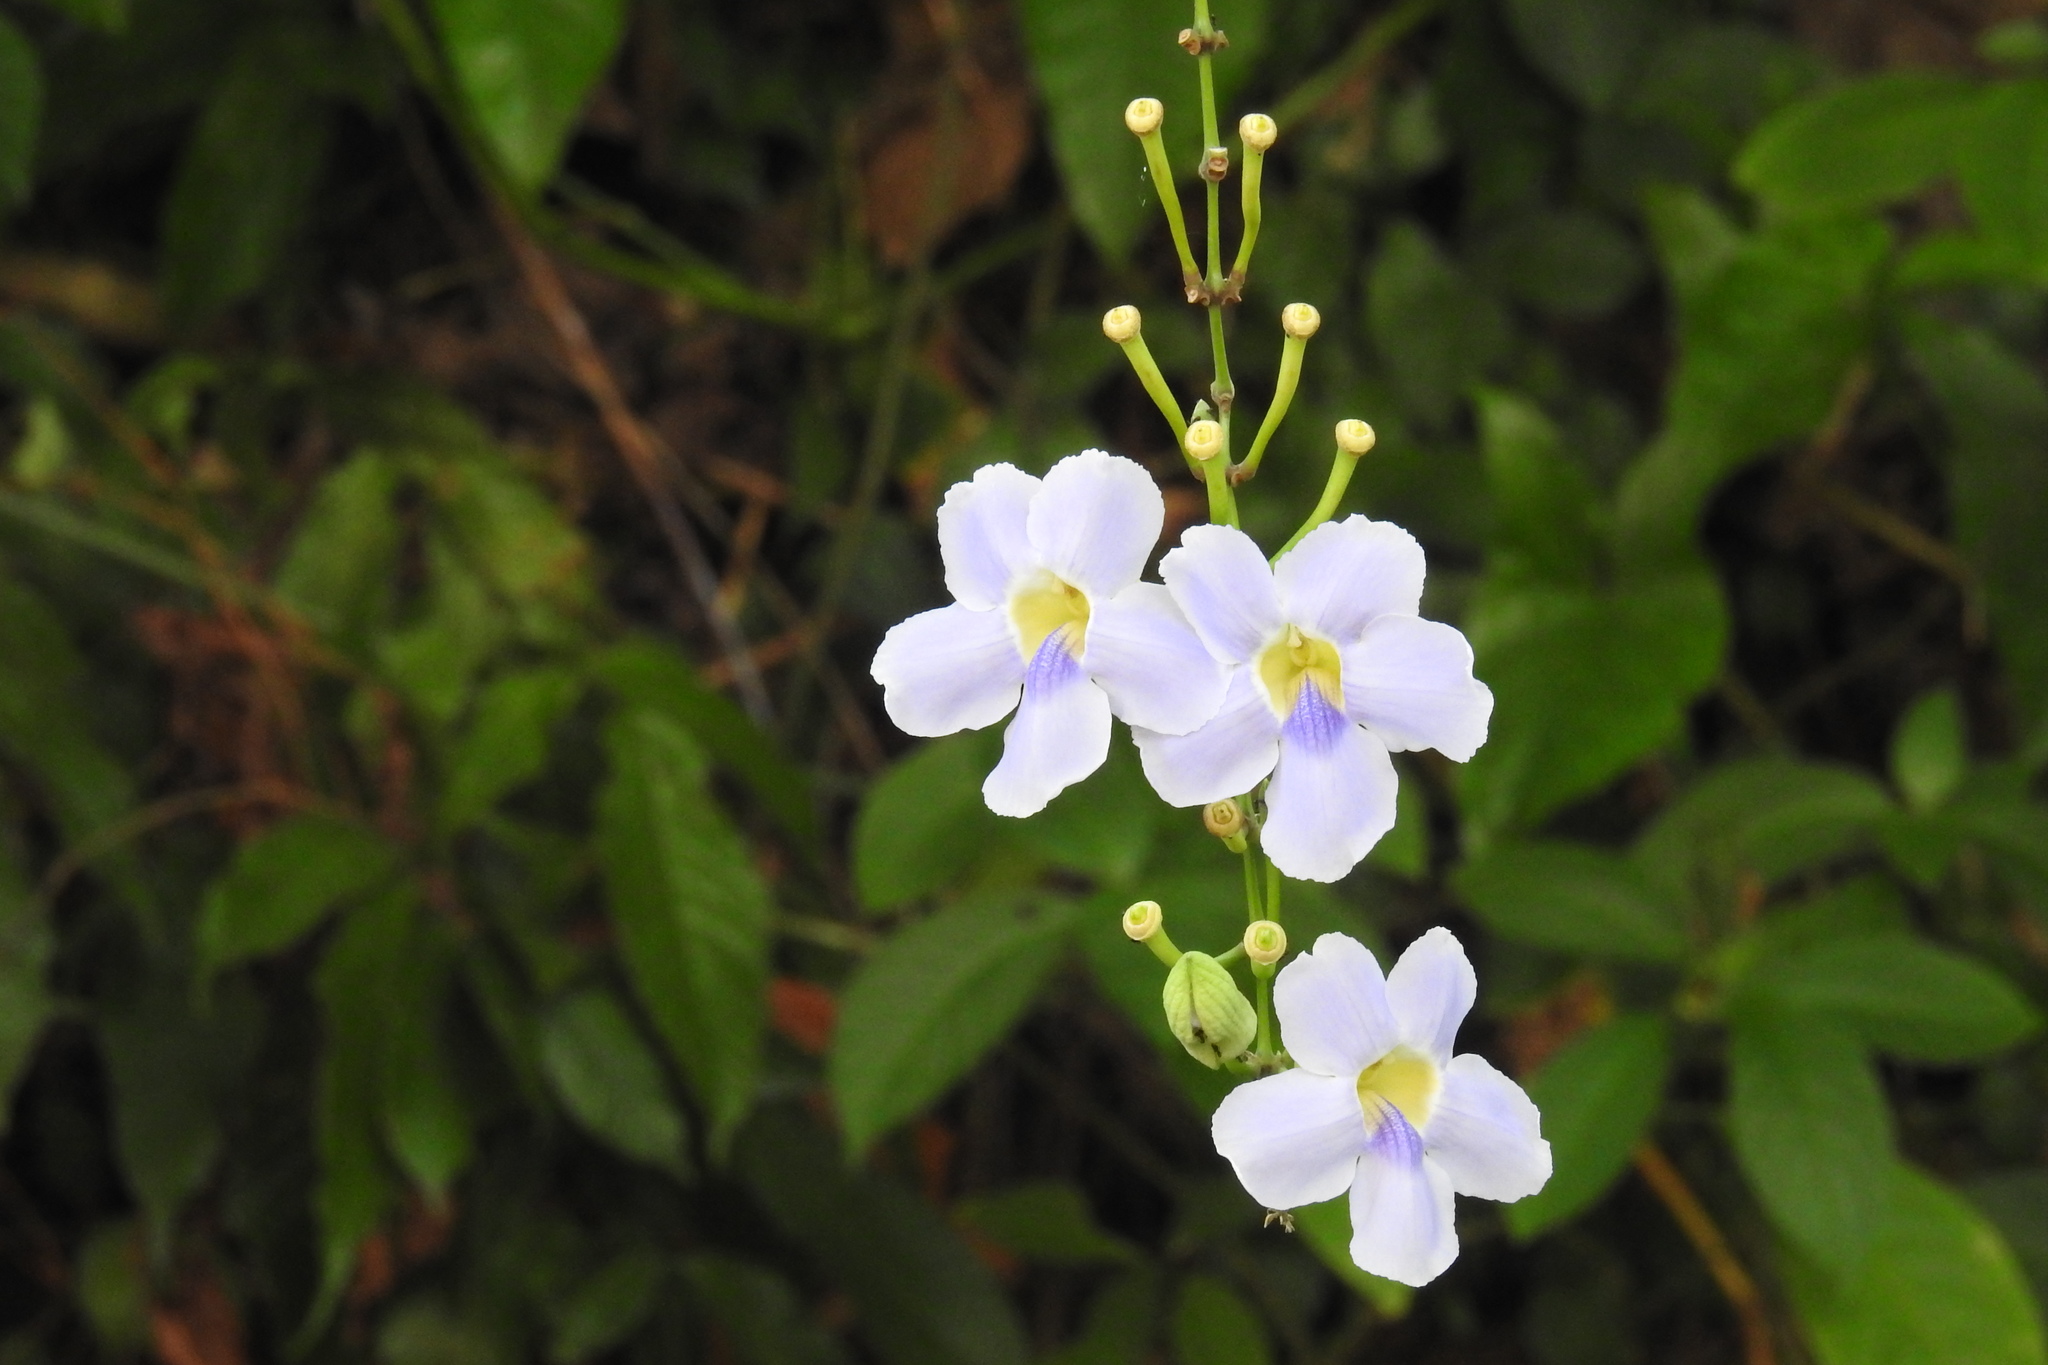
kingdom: Plantae
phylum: Tracheophyta
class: Magnoliopsida
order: Lamiales
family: Acanthaceae
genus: Thunbergia
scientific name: Thunbergia grandiflora
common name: Bengal trumpet
